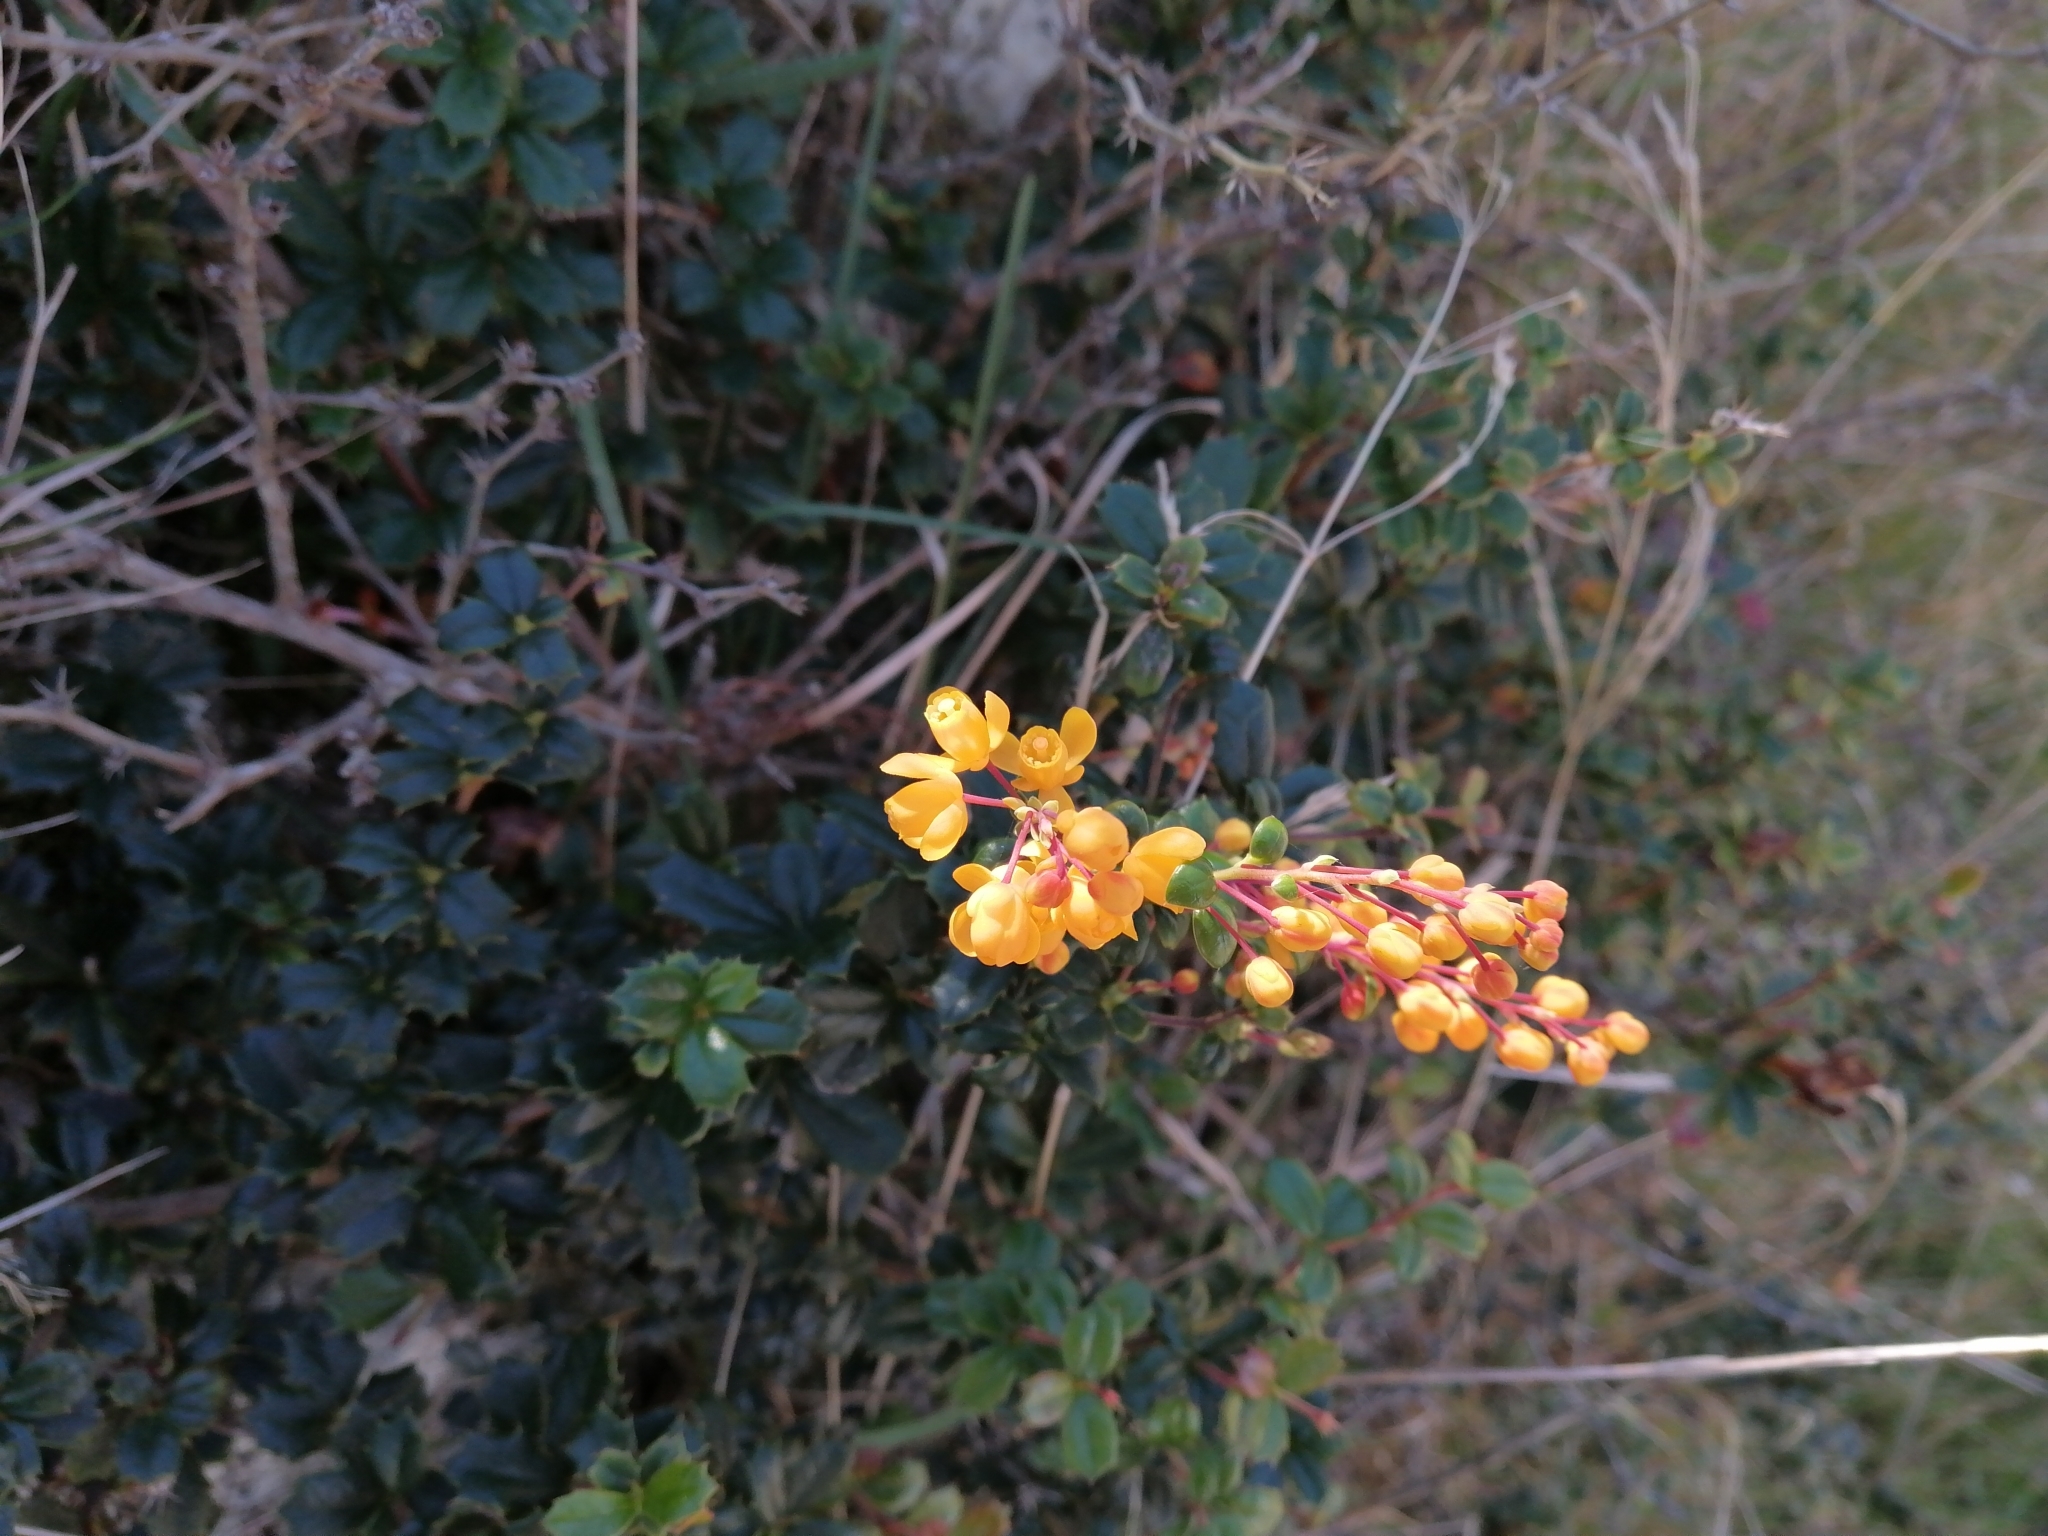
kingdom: Plantae
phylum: Tracheophyta
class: Magnoliopsida
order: Ranunculales
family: Berberidaceae
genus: Berberis
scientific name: Berberis darwinii
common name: Darwin's barberry
